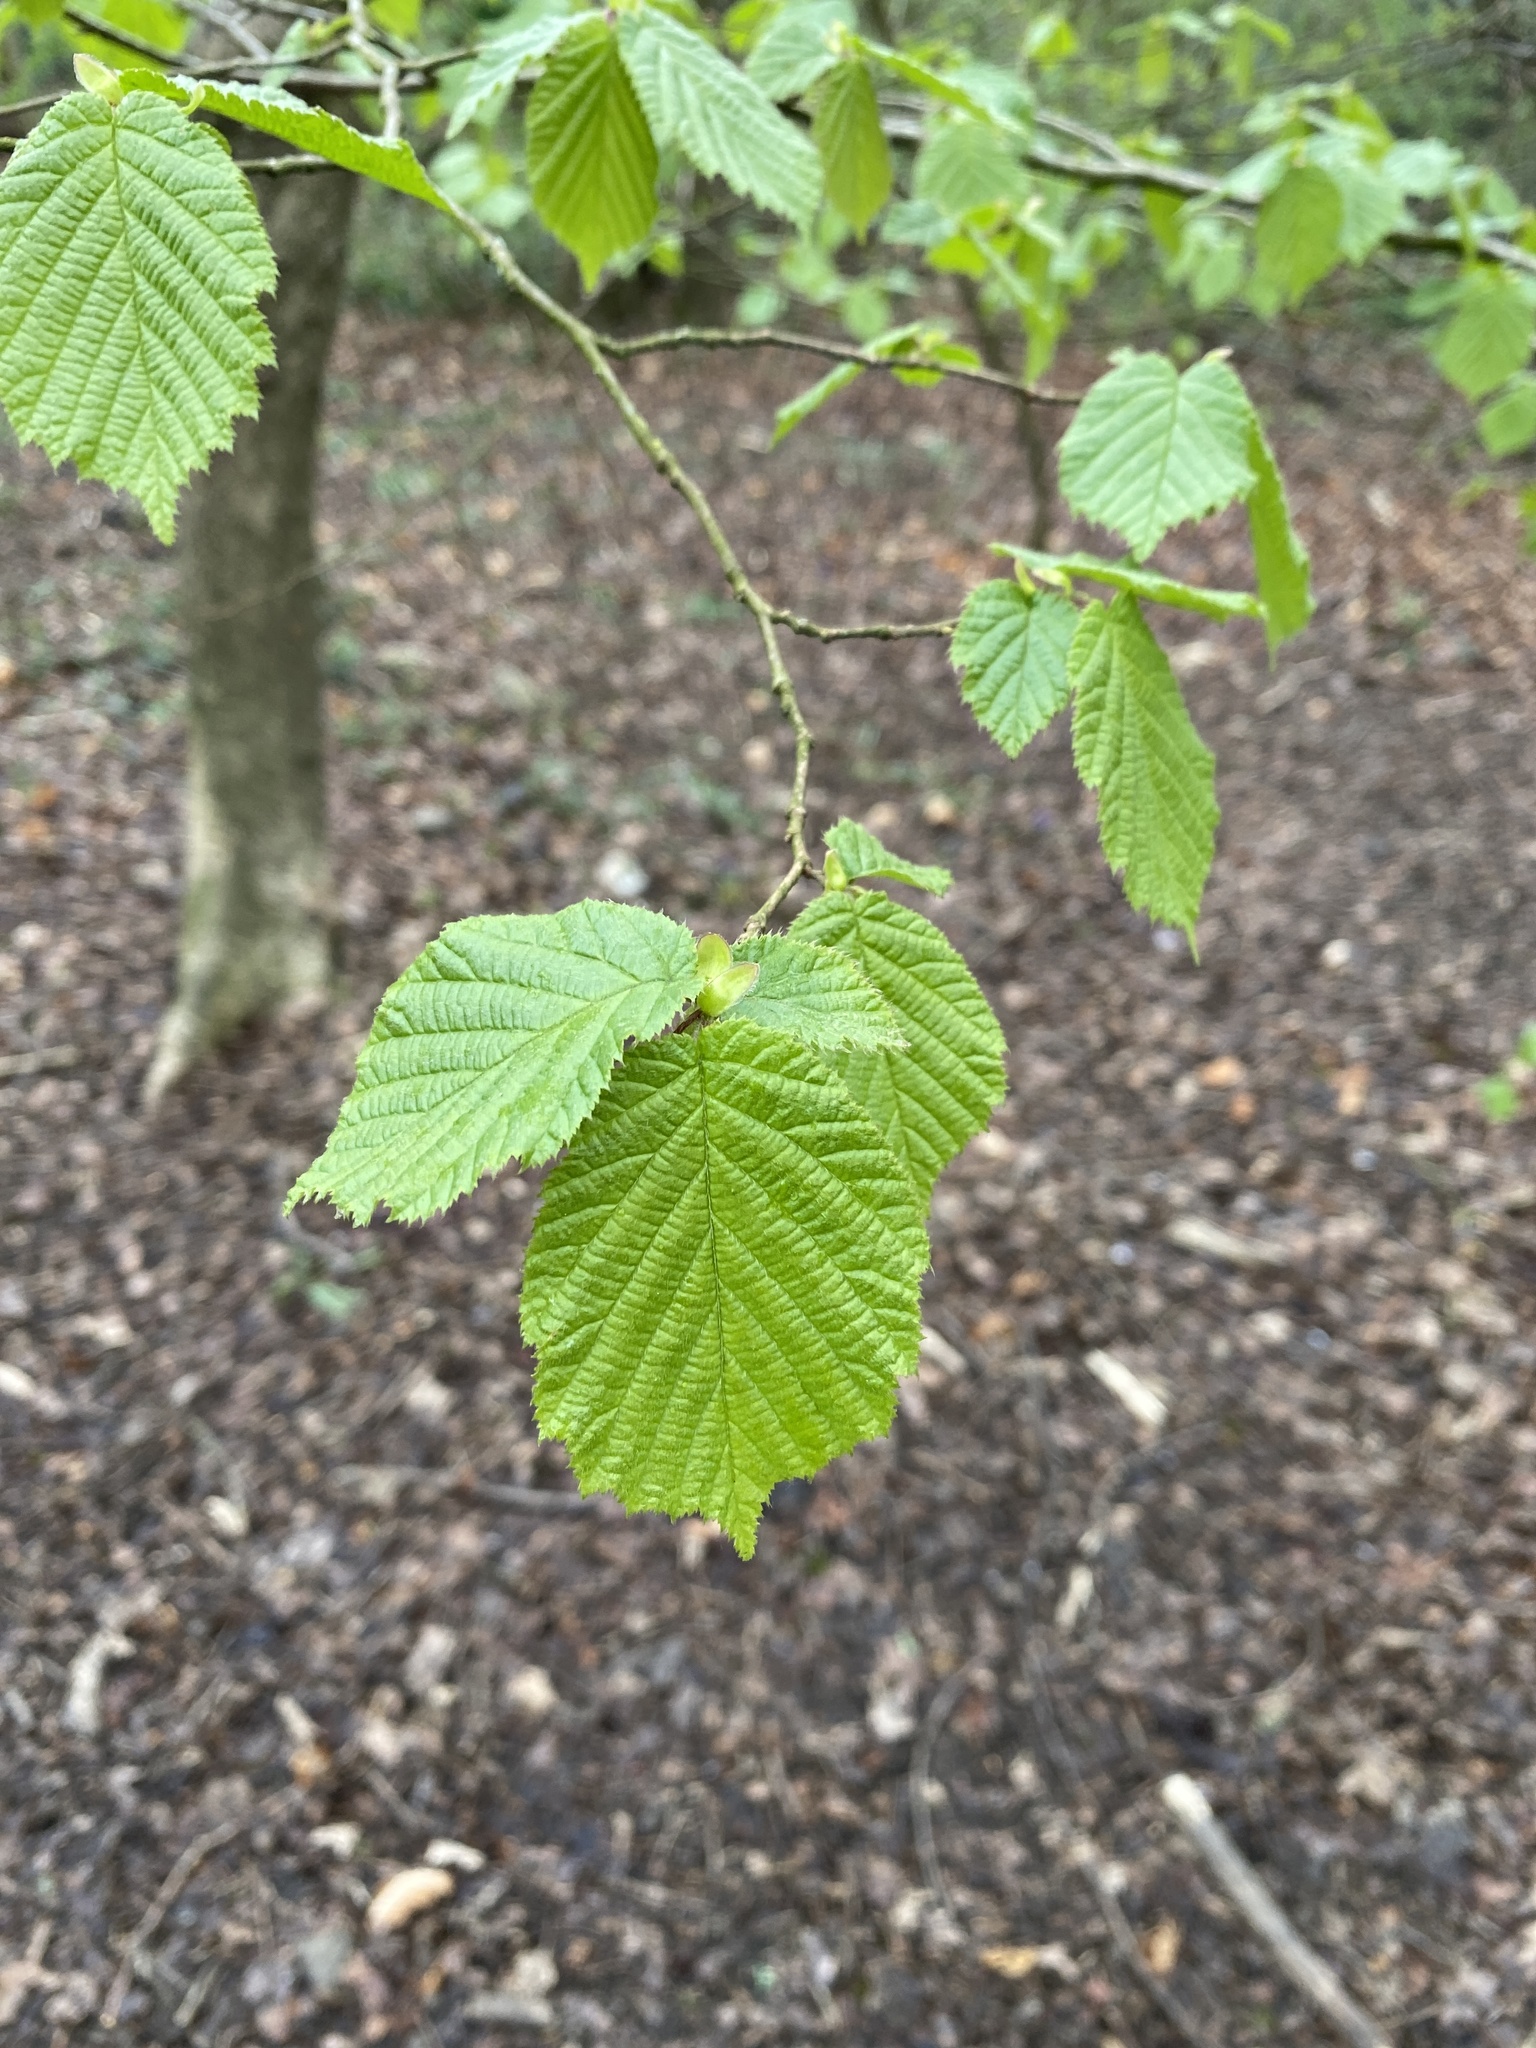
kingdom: Plantae
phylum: Tracheophyta
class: Magnoliopsida
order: Fagales
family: Betulaceae
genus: Corylus
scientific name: Corylus avellana
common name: European hazel
